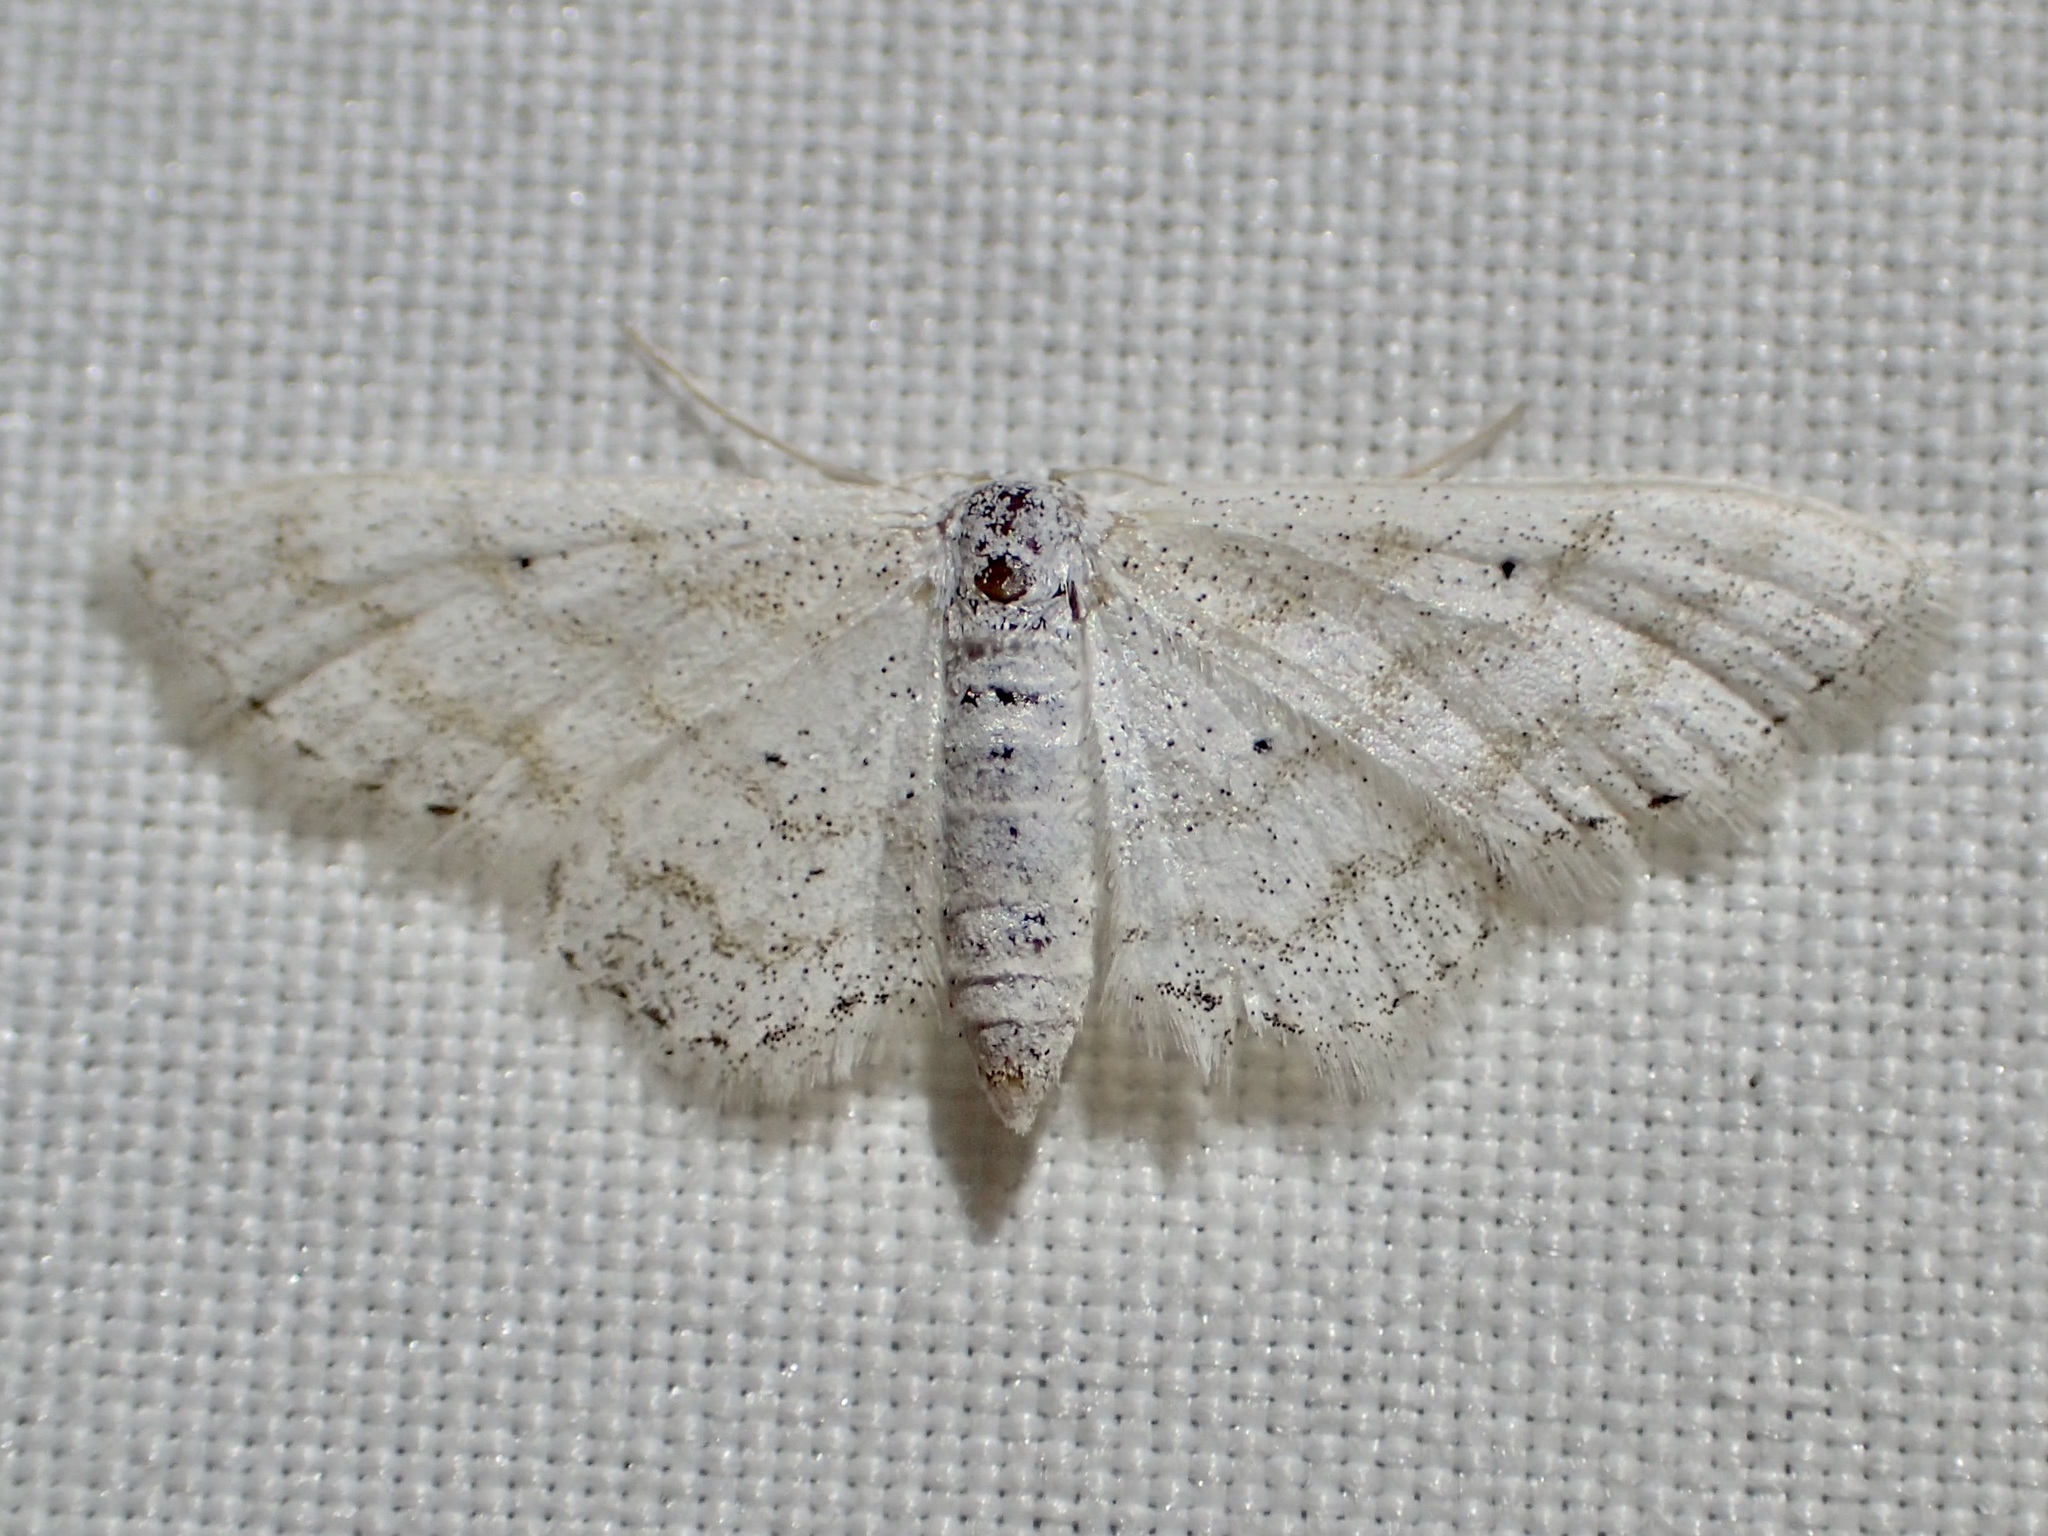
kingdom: Animalia
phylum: Arthropoda
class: Insecta
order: Lepidoptera
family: Geometridae
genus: Lobocleta
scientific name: Lobocleta peralbata
